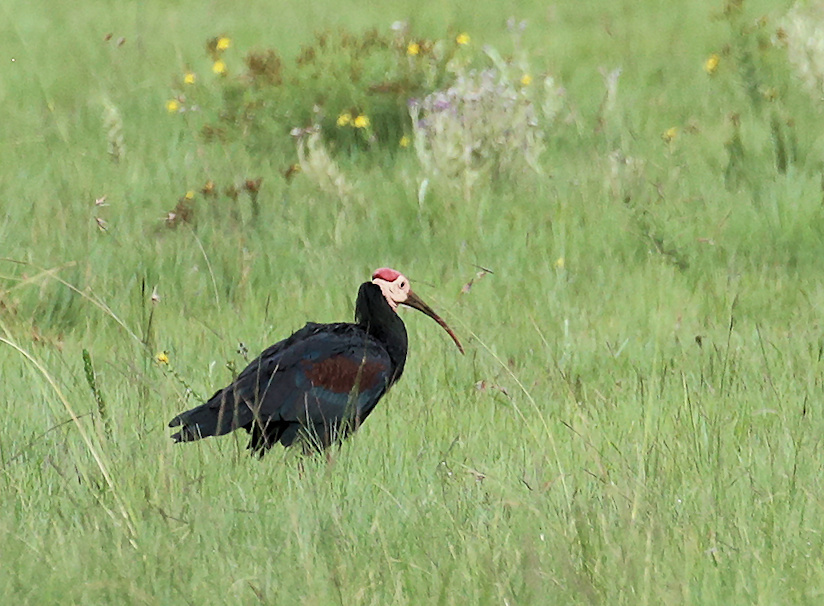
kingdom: Animalia
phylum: Chordata
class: Aves
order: Pelecaniformes
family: Threskiornithidae
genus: Geronticus
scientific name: Geronticus calvus
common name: Southern bald ibis
